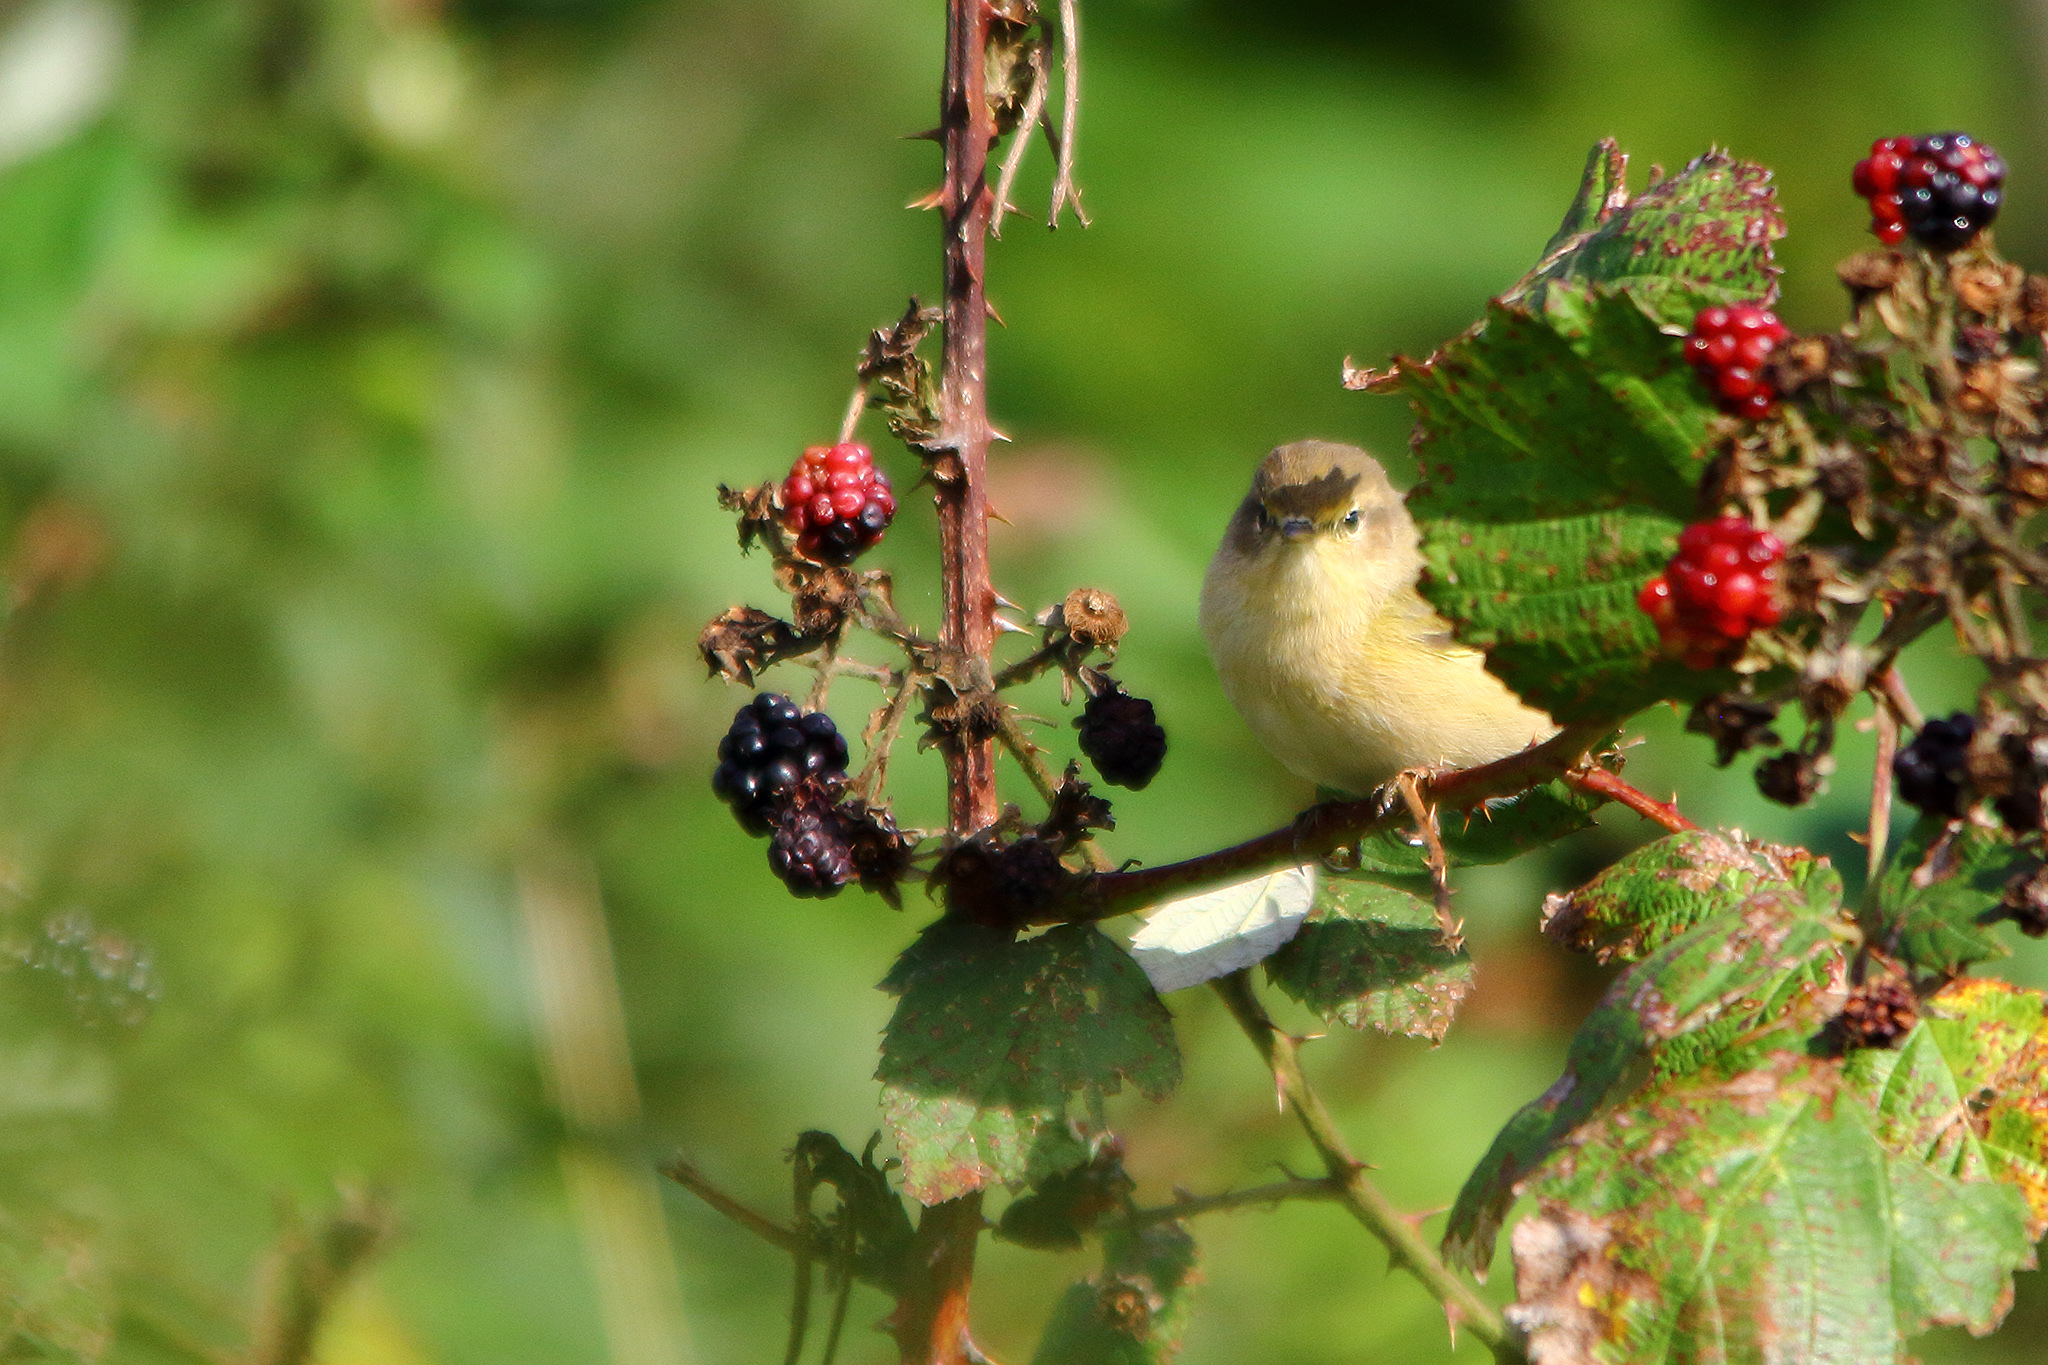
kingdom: Animalia
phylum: Chordata
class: Aves
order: Passeriformes
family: Phylloscopidae
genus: Phylloscopus
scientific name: Phylloscopus collybita
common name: Common chiffchaff
